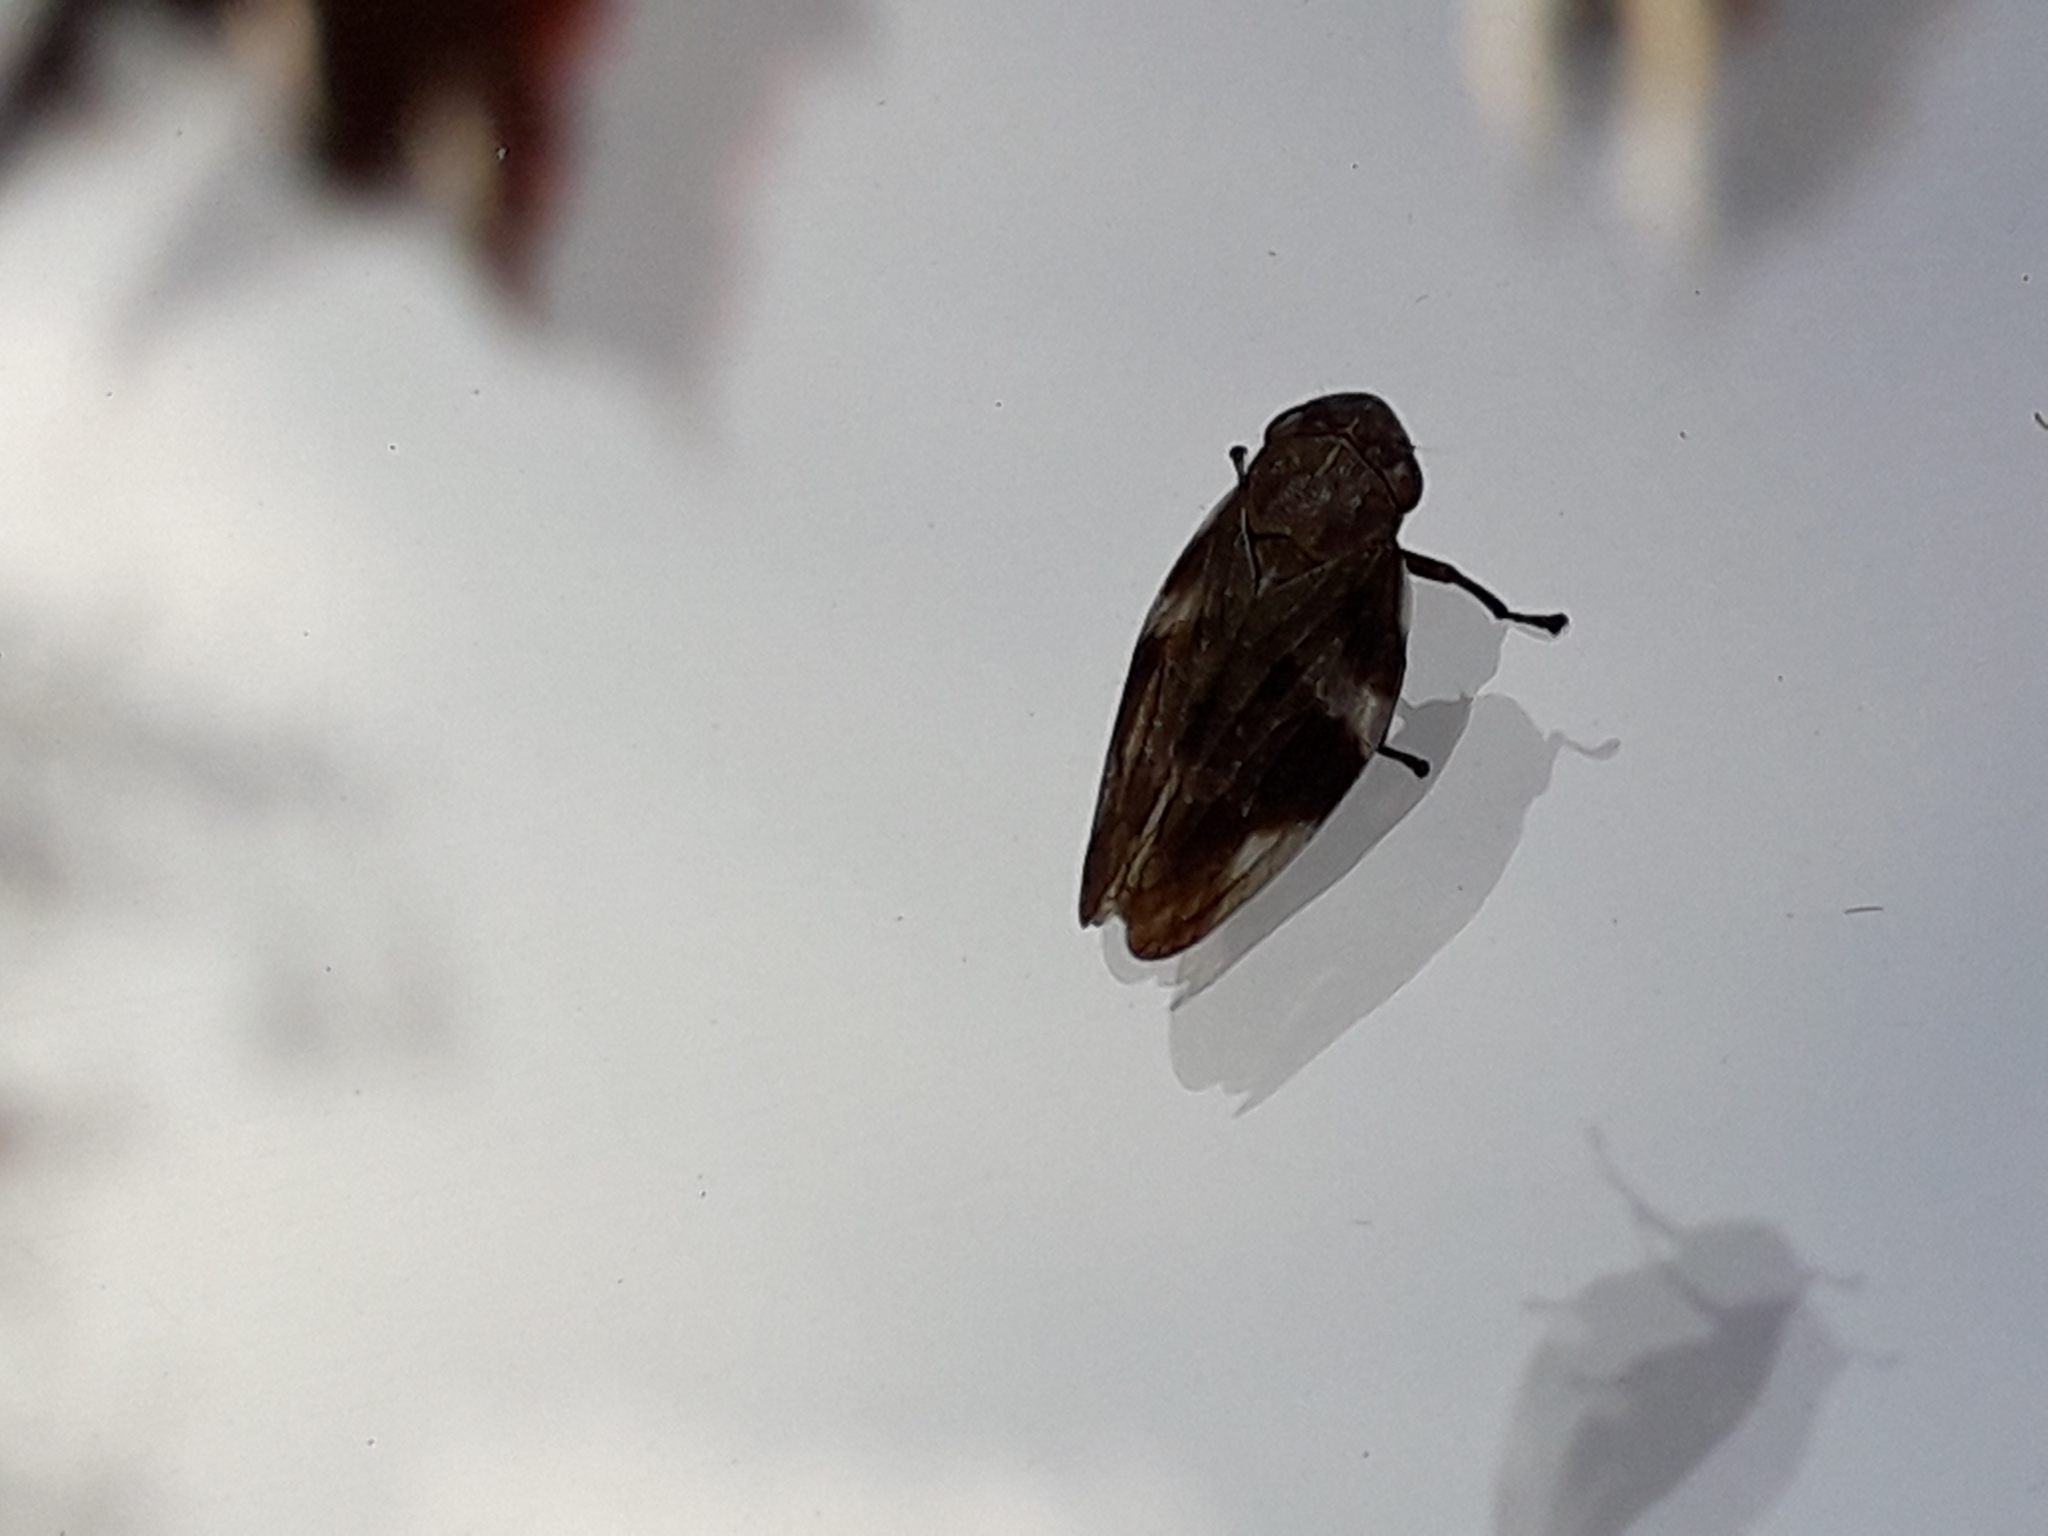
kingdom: Animalia
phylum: Arthropoda
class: Insecta
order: Hemiptera
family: Aphrophoridae
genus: Aphrophora
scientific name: Aphrophora alni
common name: European alder spittlebug
